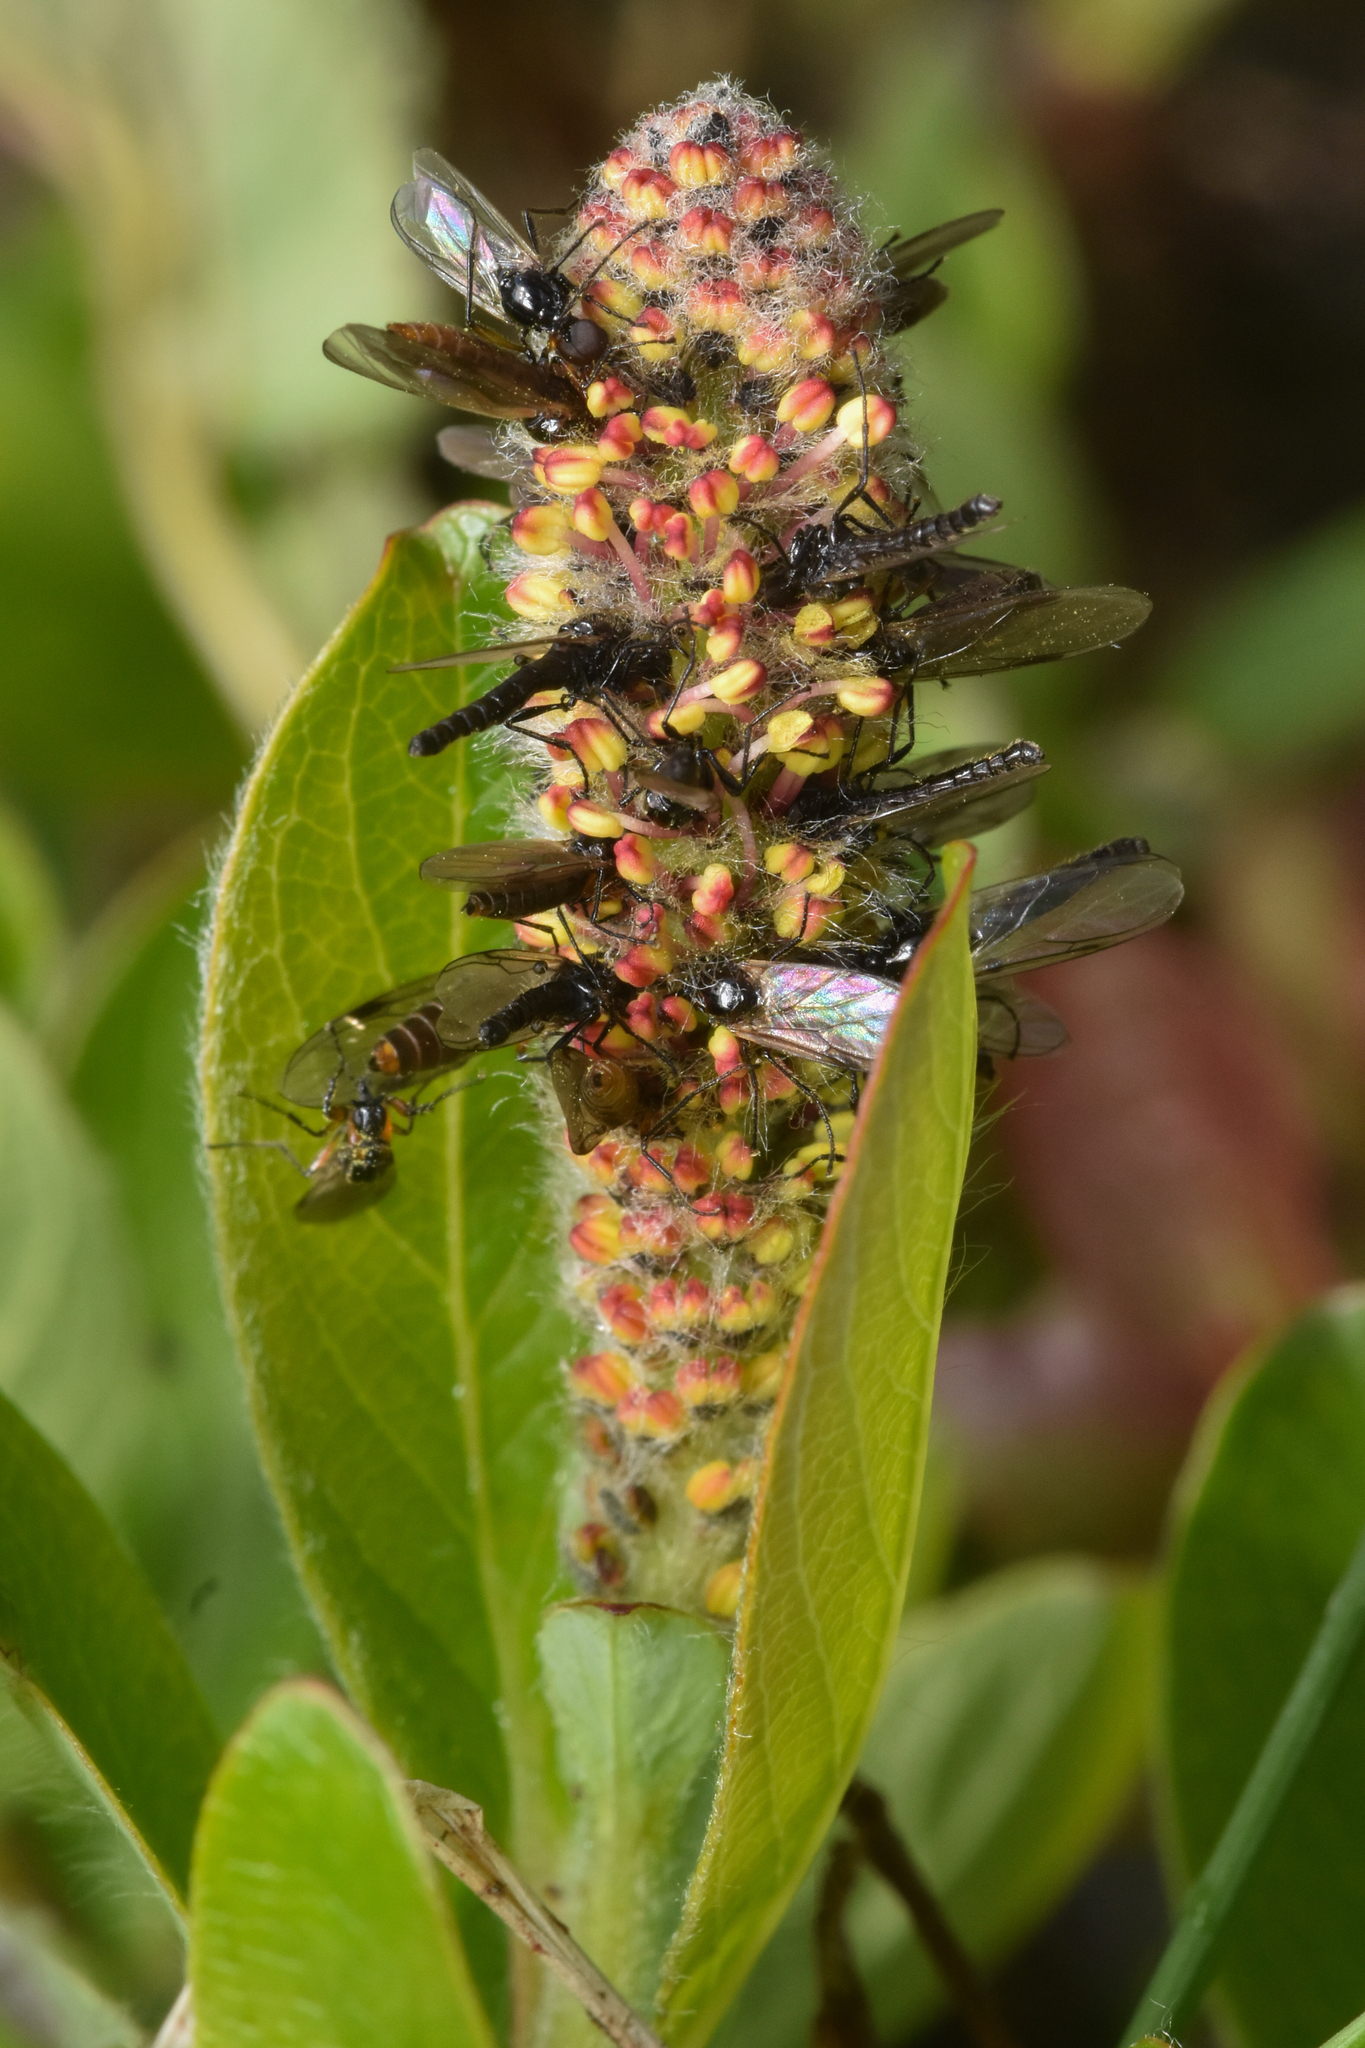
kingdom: Animalia
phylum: Arthropoda
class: Insecta
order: Diptera
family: Bibionidae
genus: Dilophus
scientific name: Dilophus
